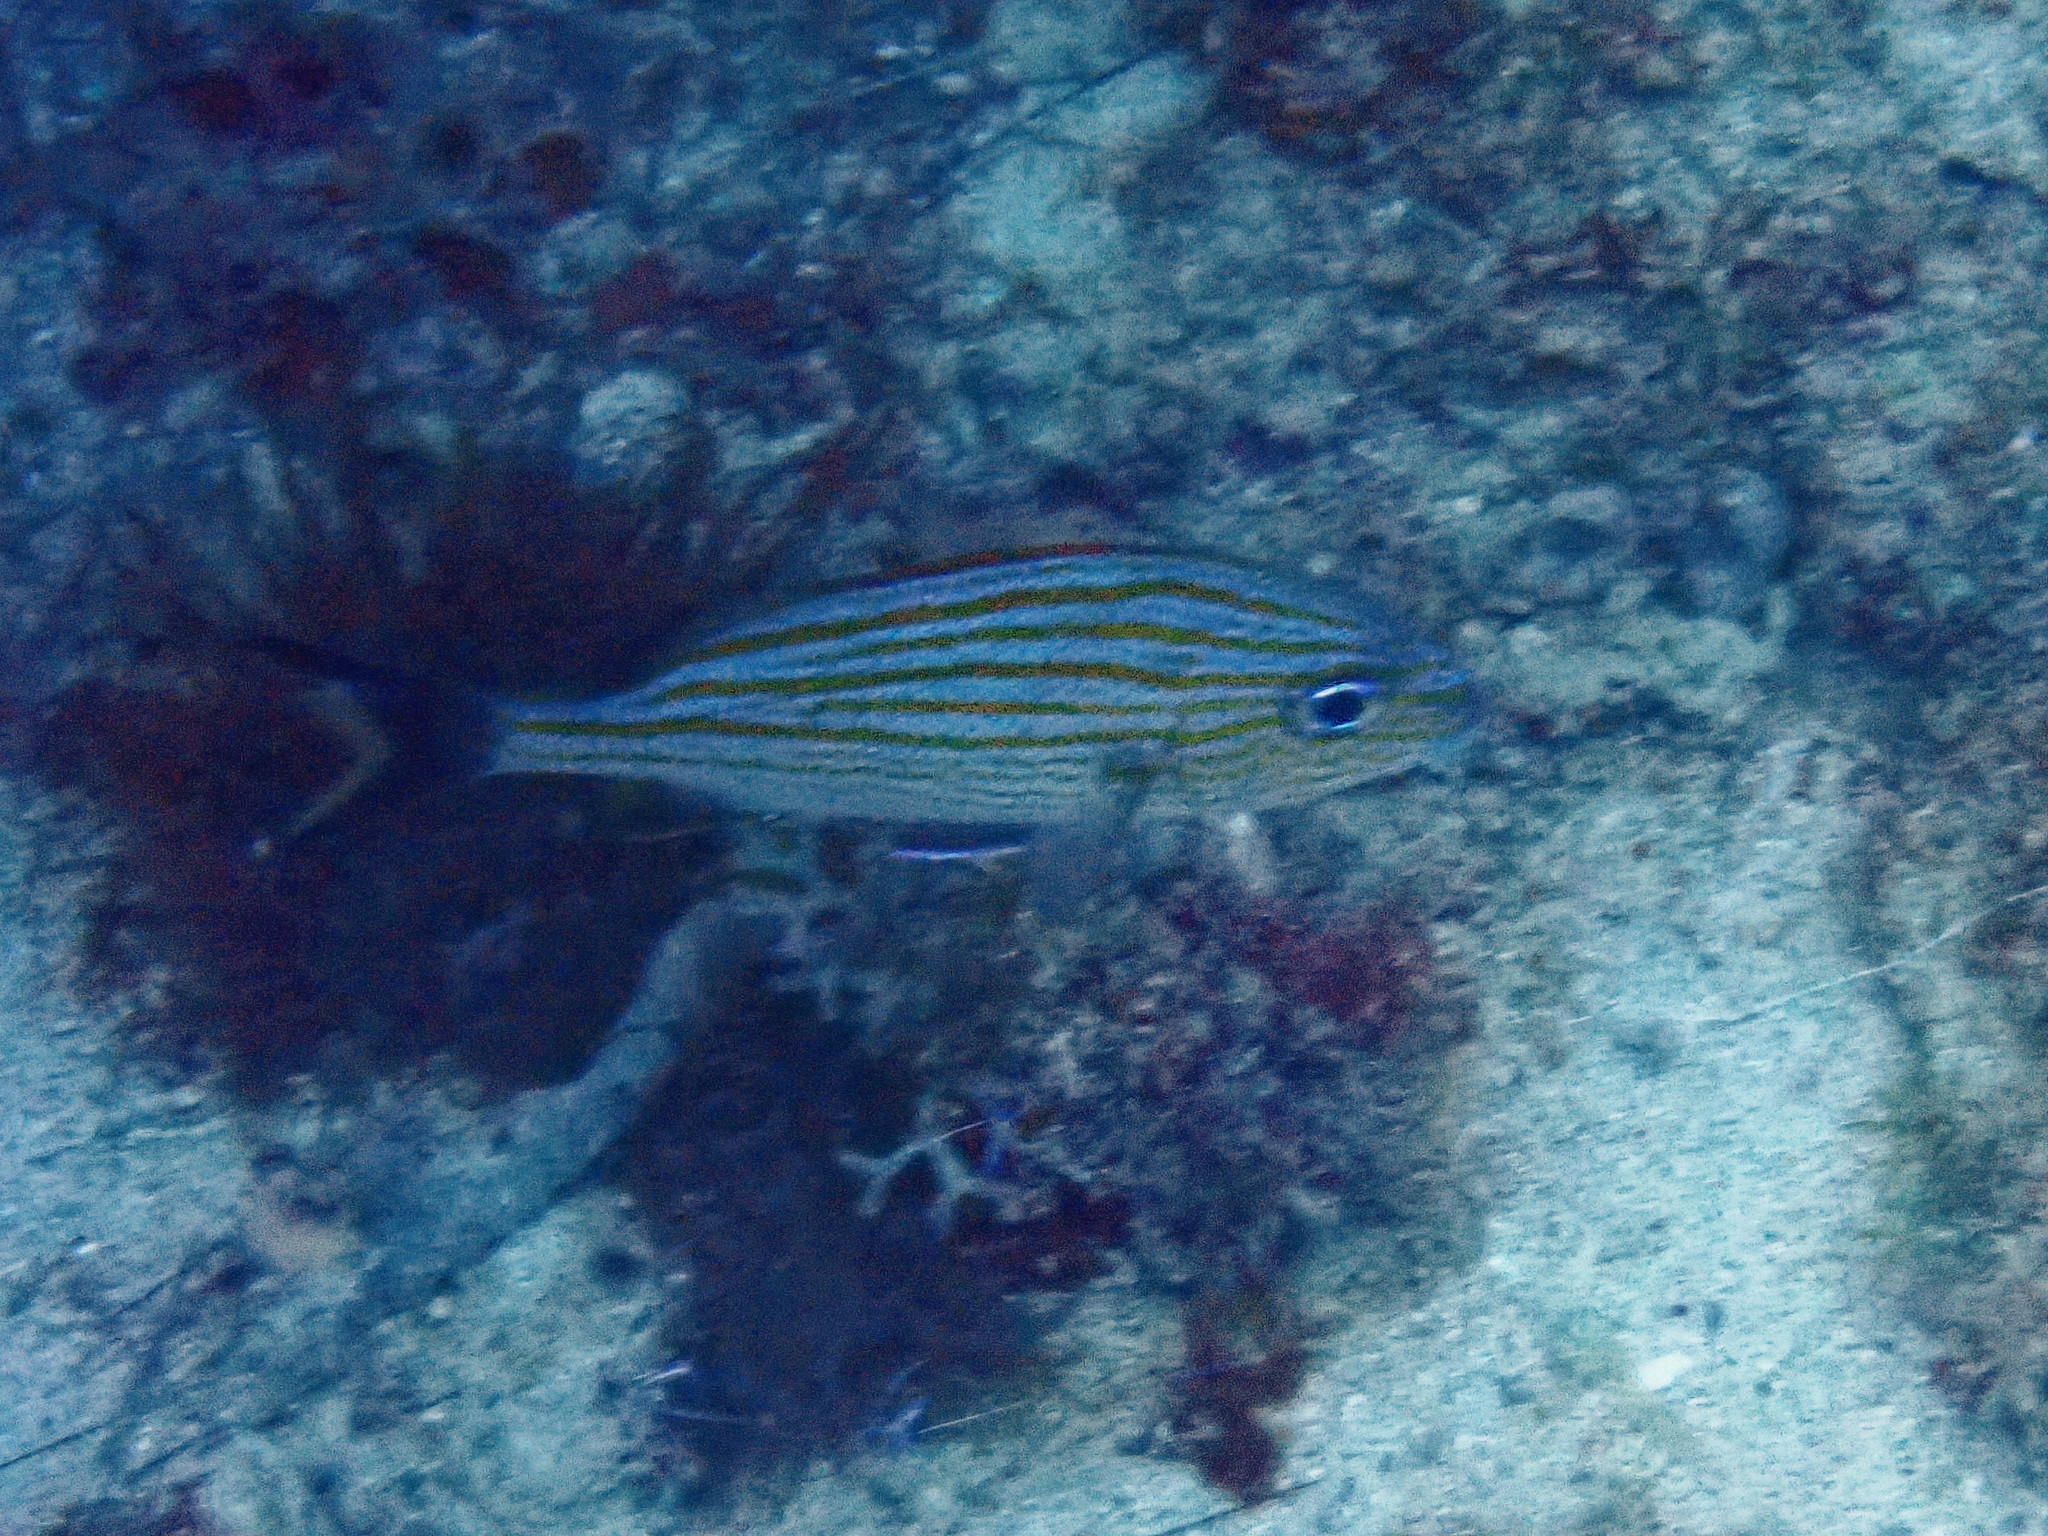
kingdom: Animalia
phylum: Chordata
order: Perciformes
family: Haemulidae
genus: Haemulon
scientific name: Haemulon carbonarium
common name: Caesar grunt
